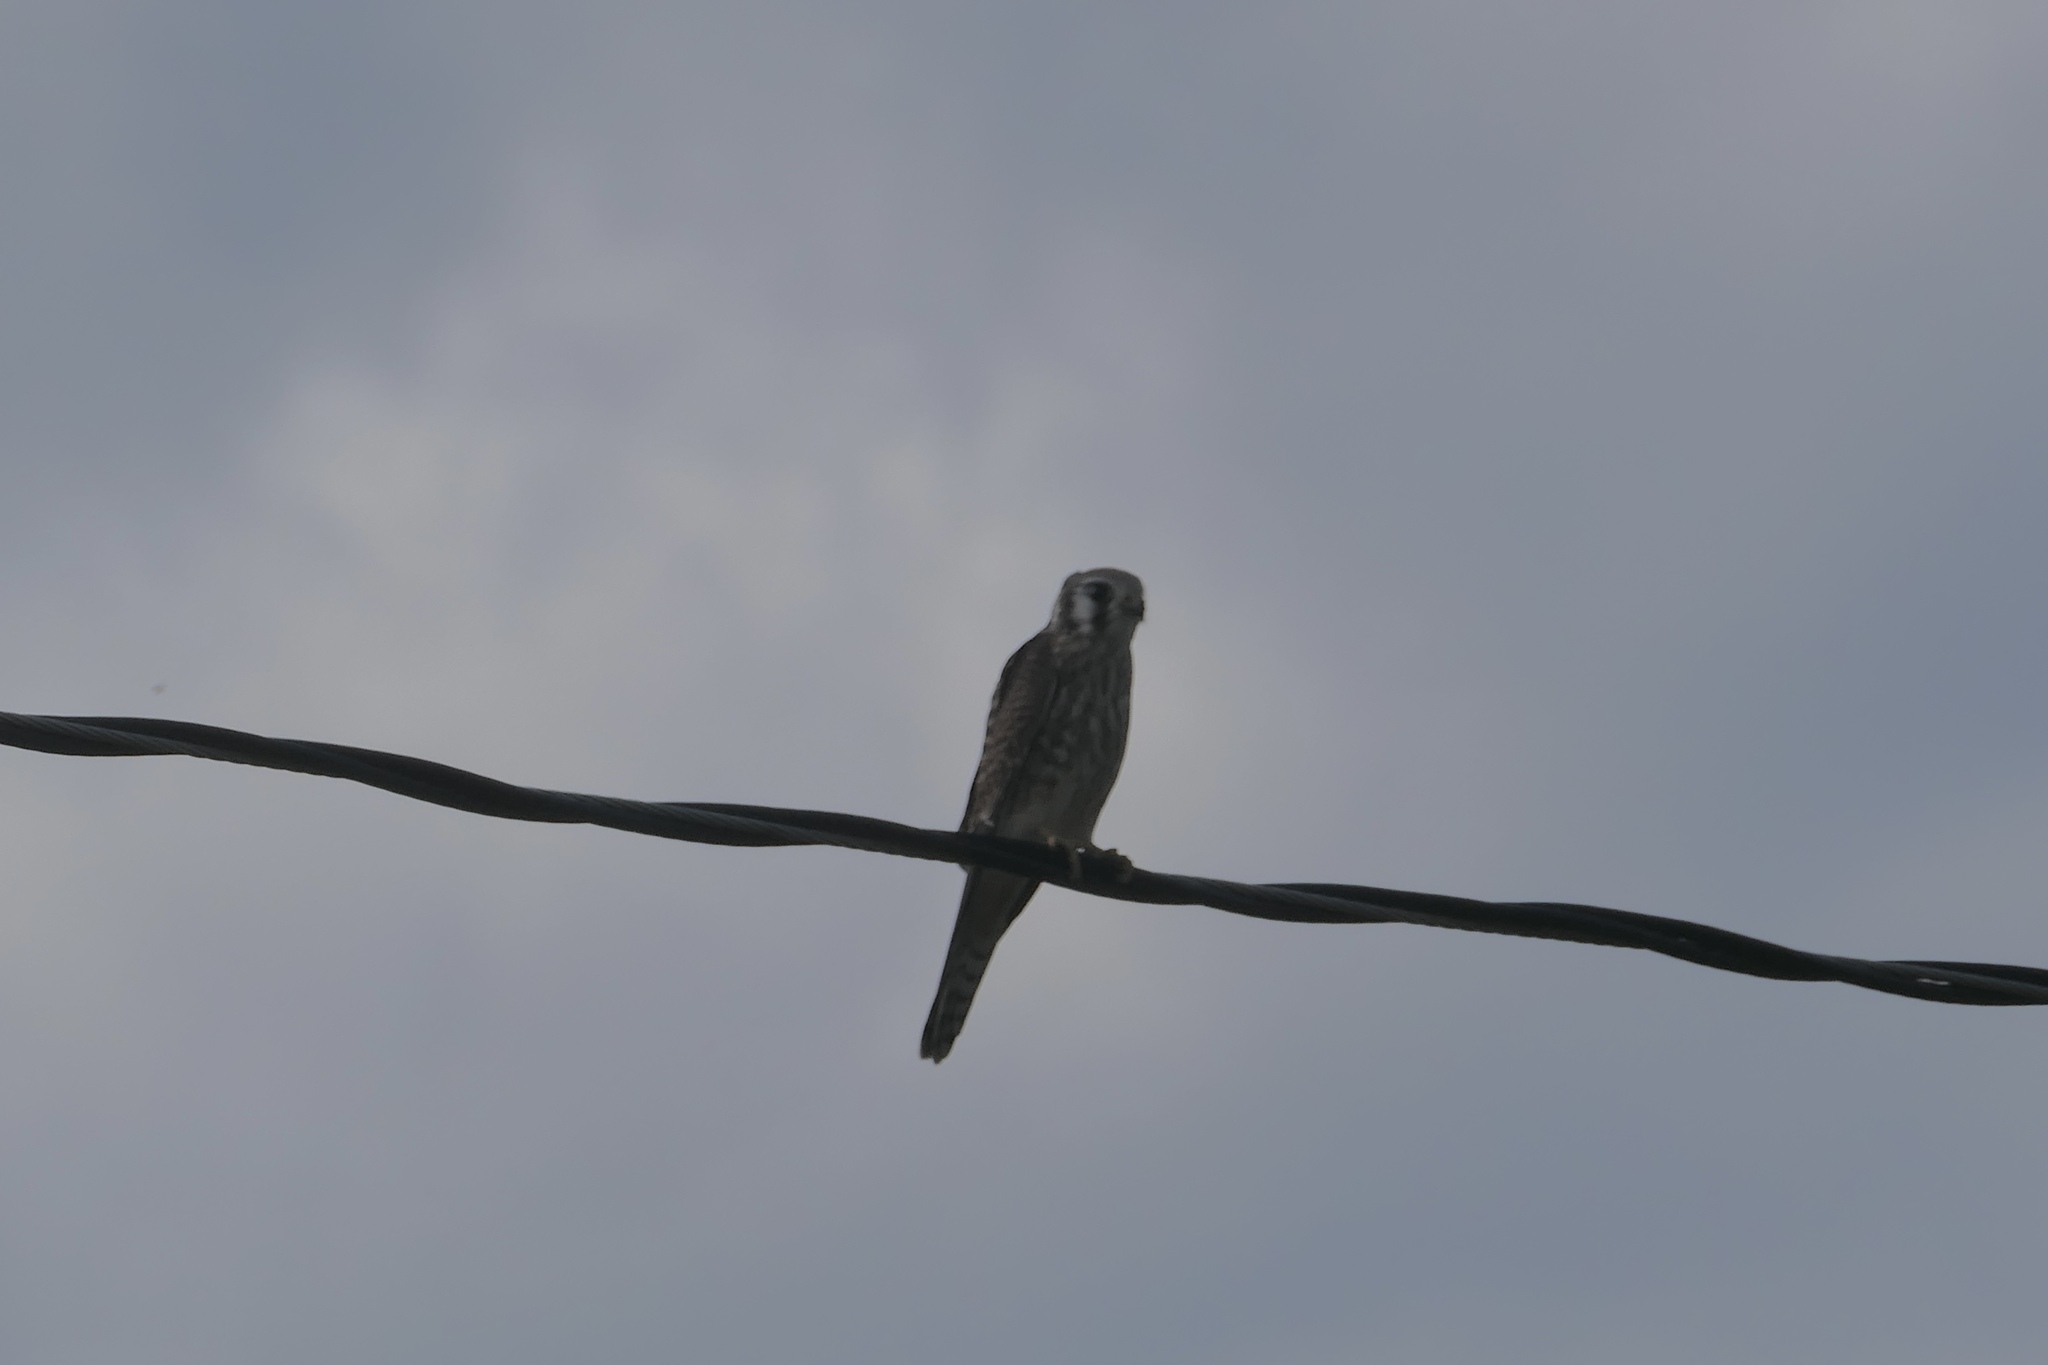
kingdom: Animalia
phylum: Chordata
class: Aves
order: Falconiformes
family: Falconidae
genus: Falco
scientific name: Falco sparverius
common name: American kestrel
